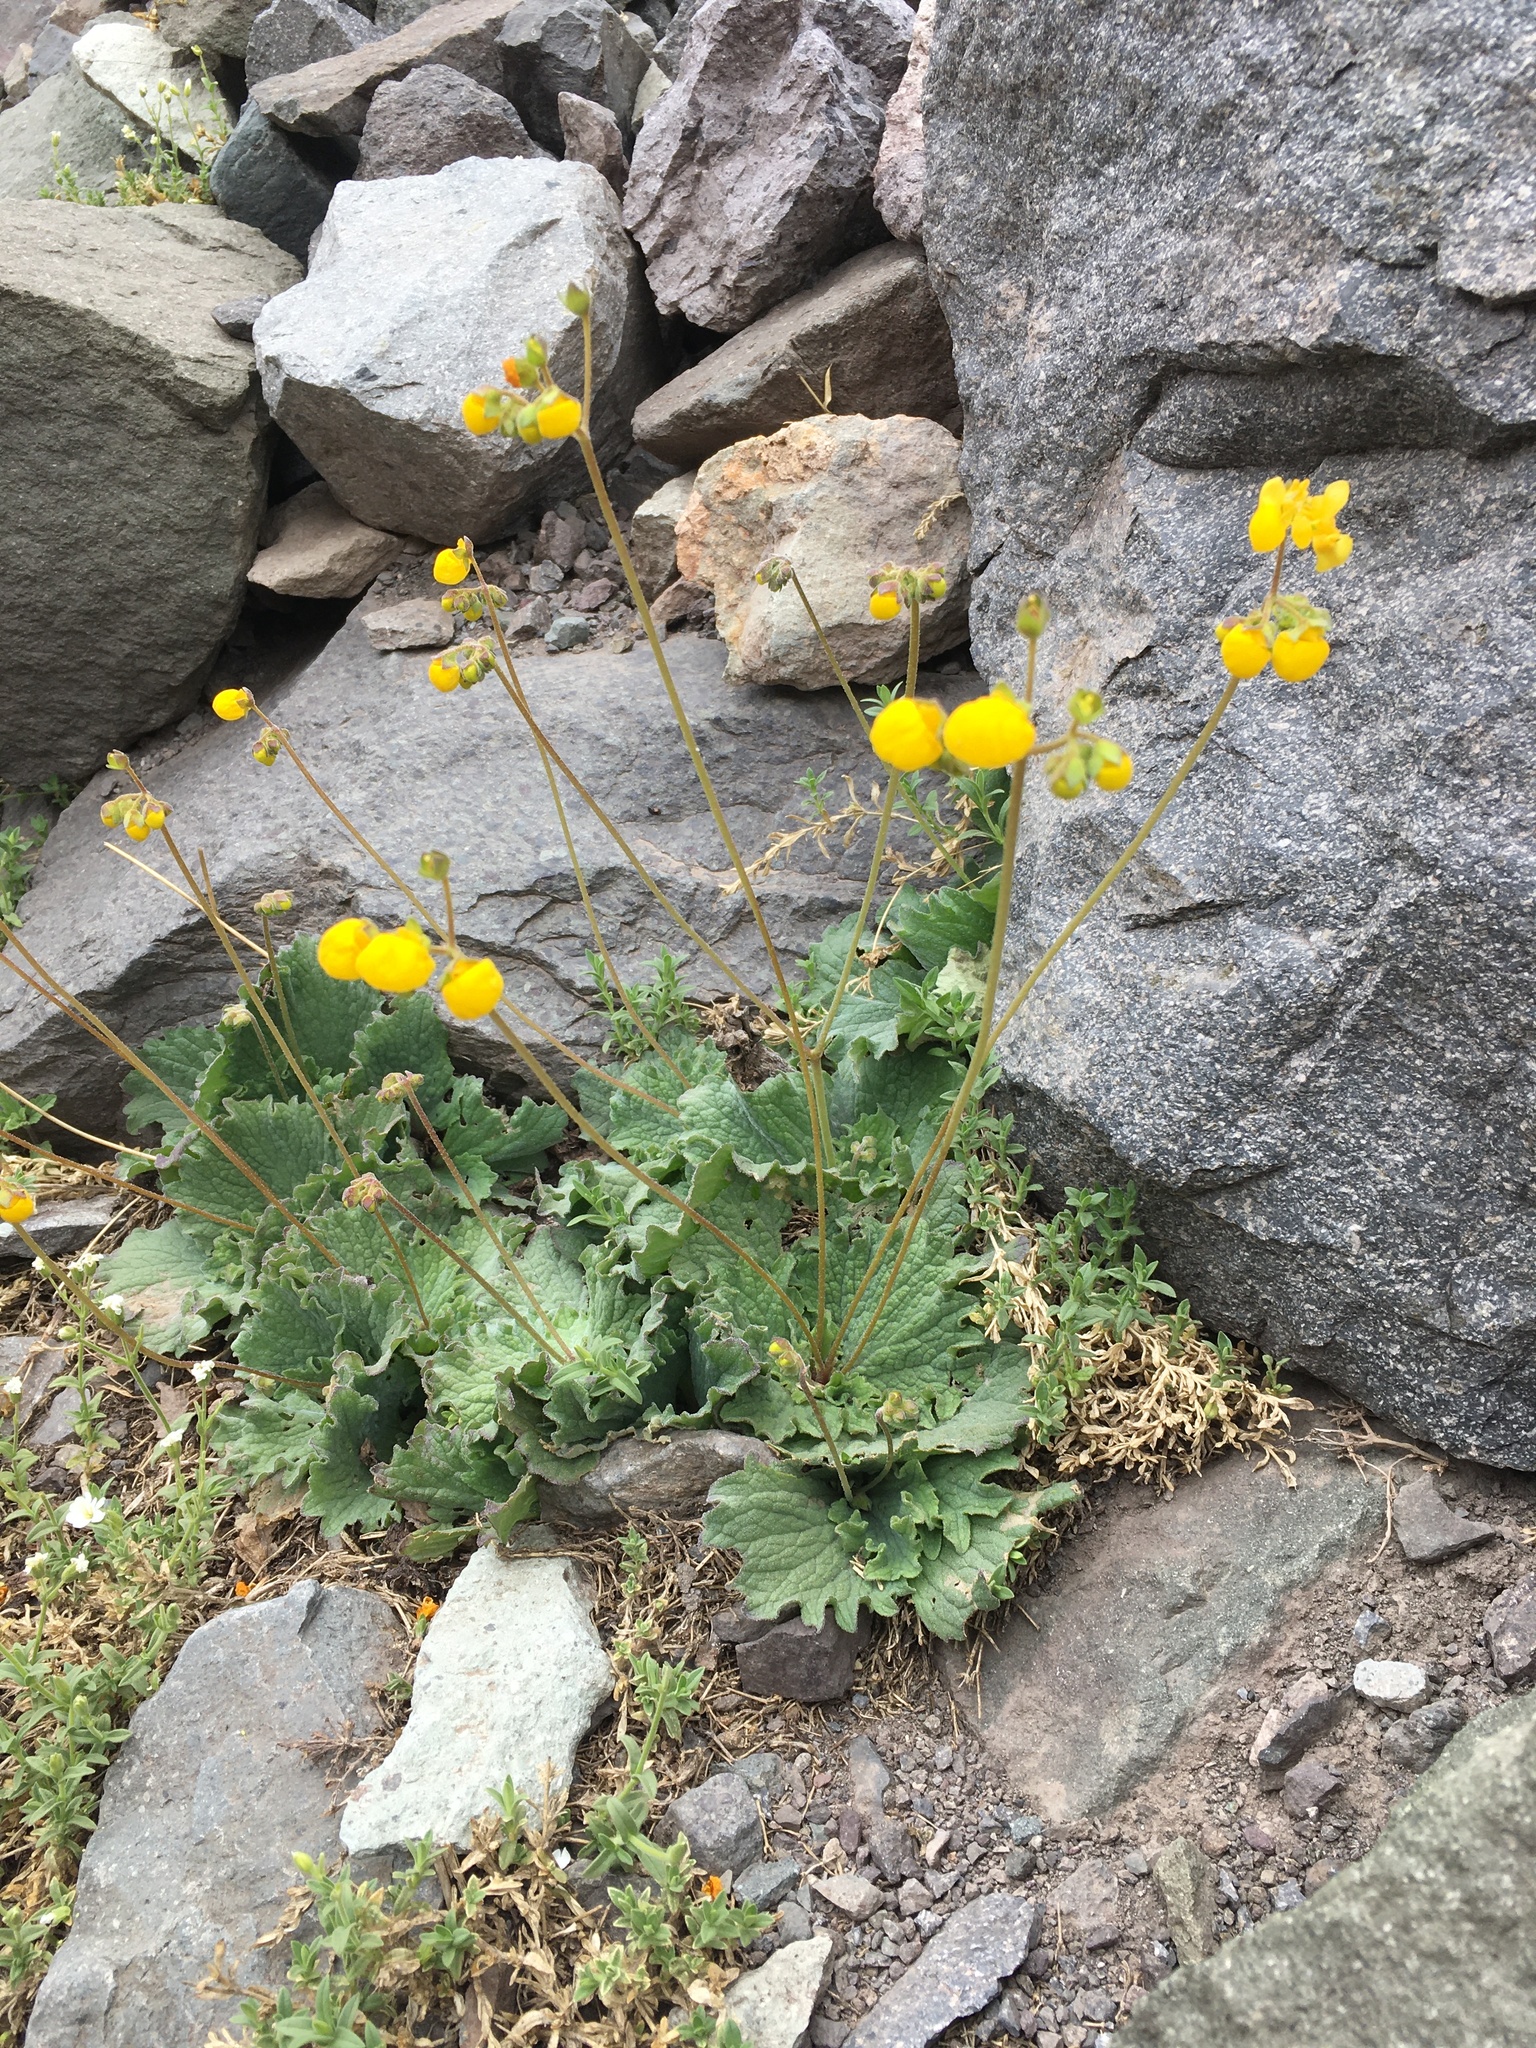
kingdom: Plantae
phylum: Tracheophyta
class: Magnoliopsida
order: Lamiales
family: Calceolariaceae
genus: Calceolaria
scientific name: Calceolaria filicaulis
